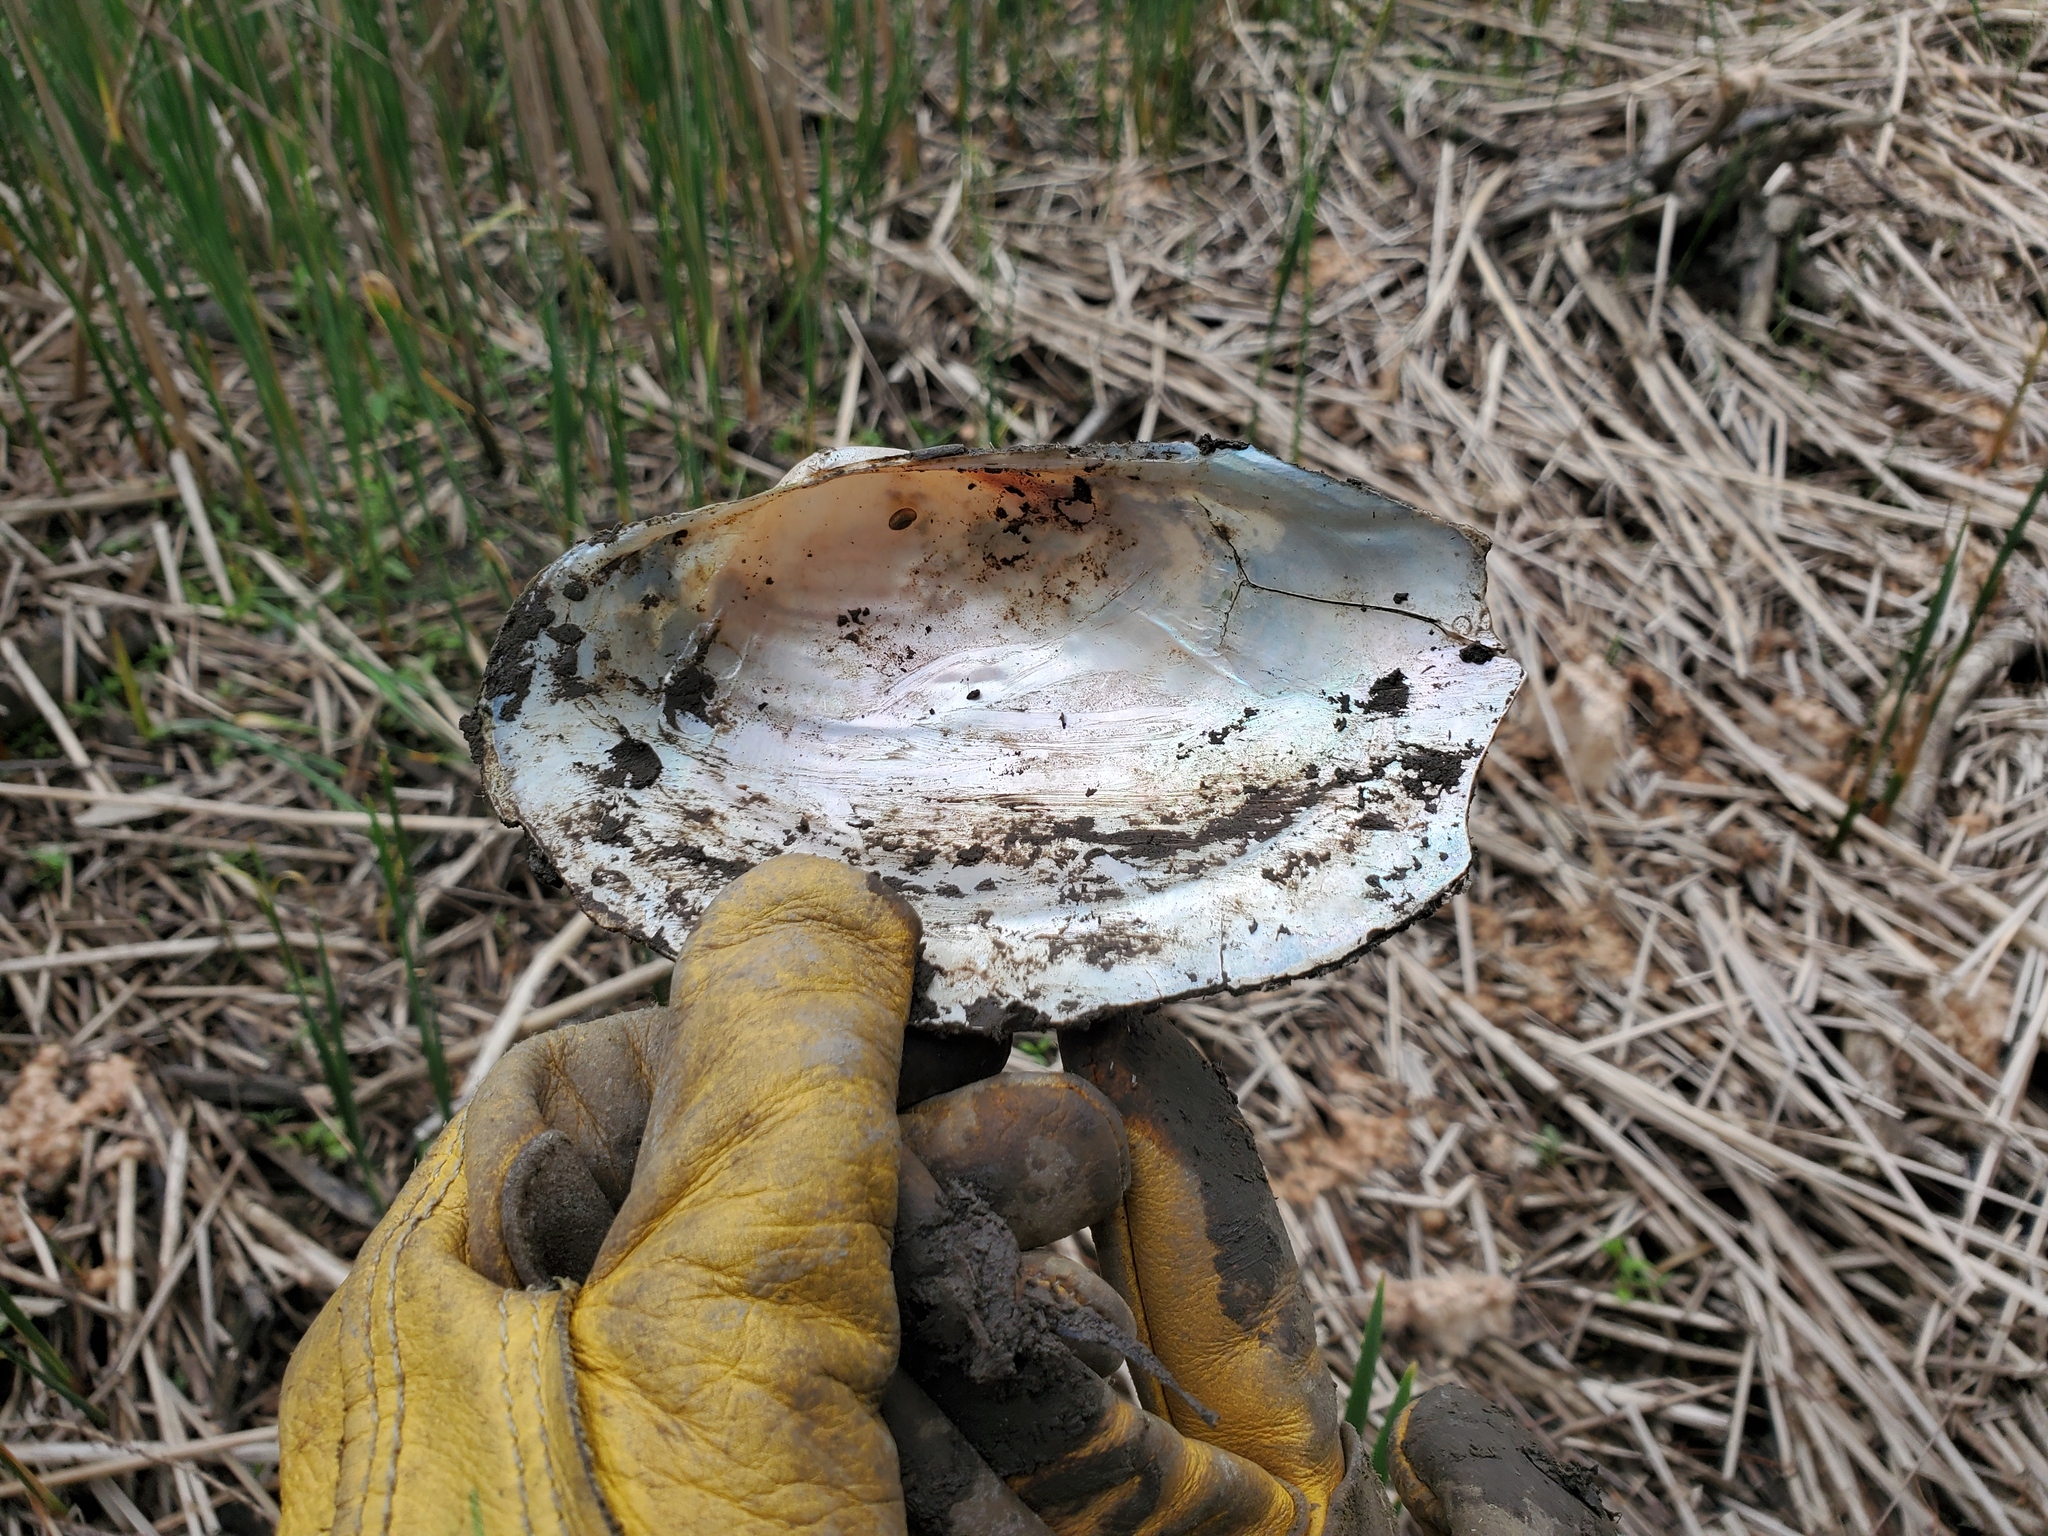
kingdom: Animalia
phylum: Mollusca
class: Bivalvia
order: Unionida
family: Unionidae
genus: Pyganodon
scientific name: Pyganodon grandis
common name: Giant floater
